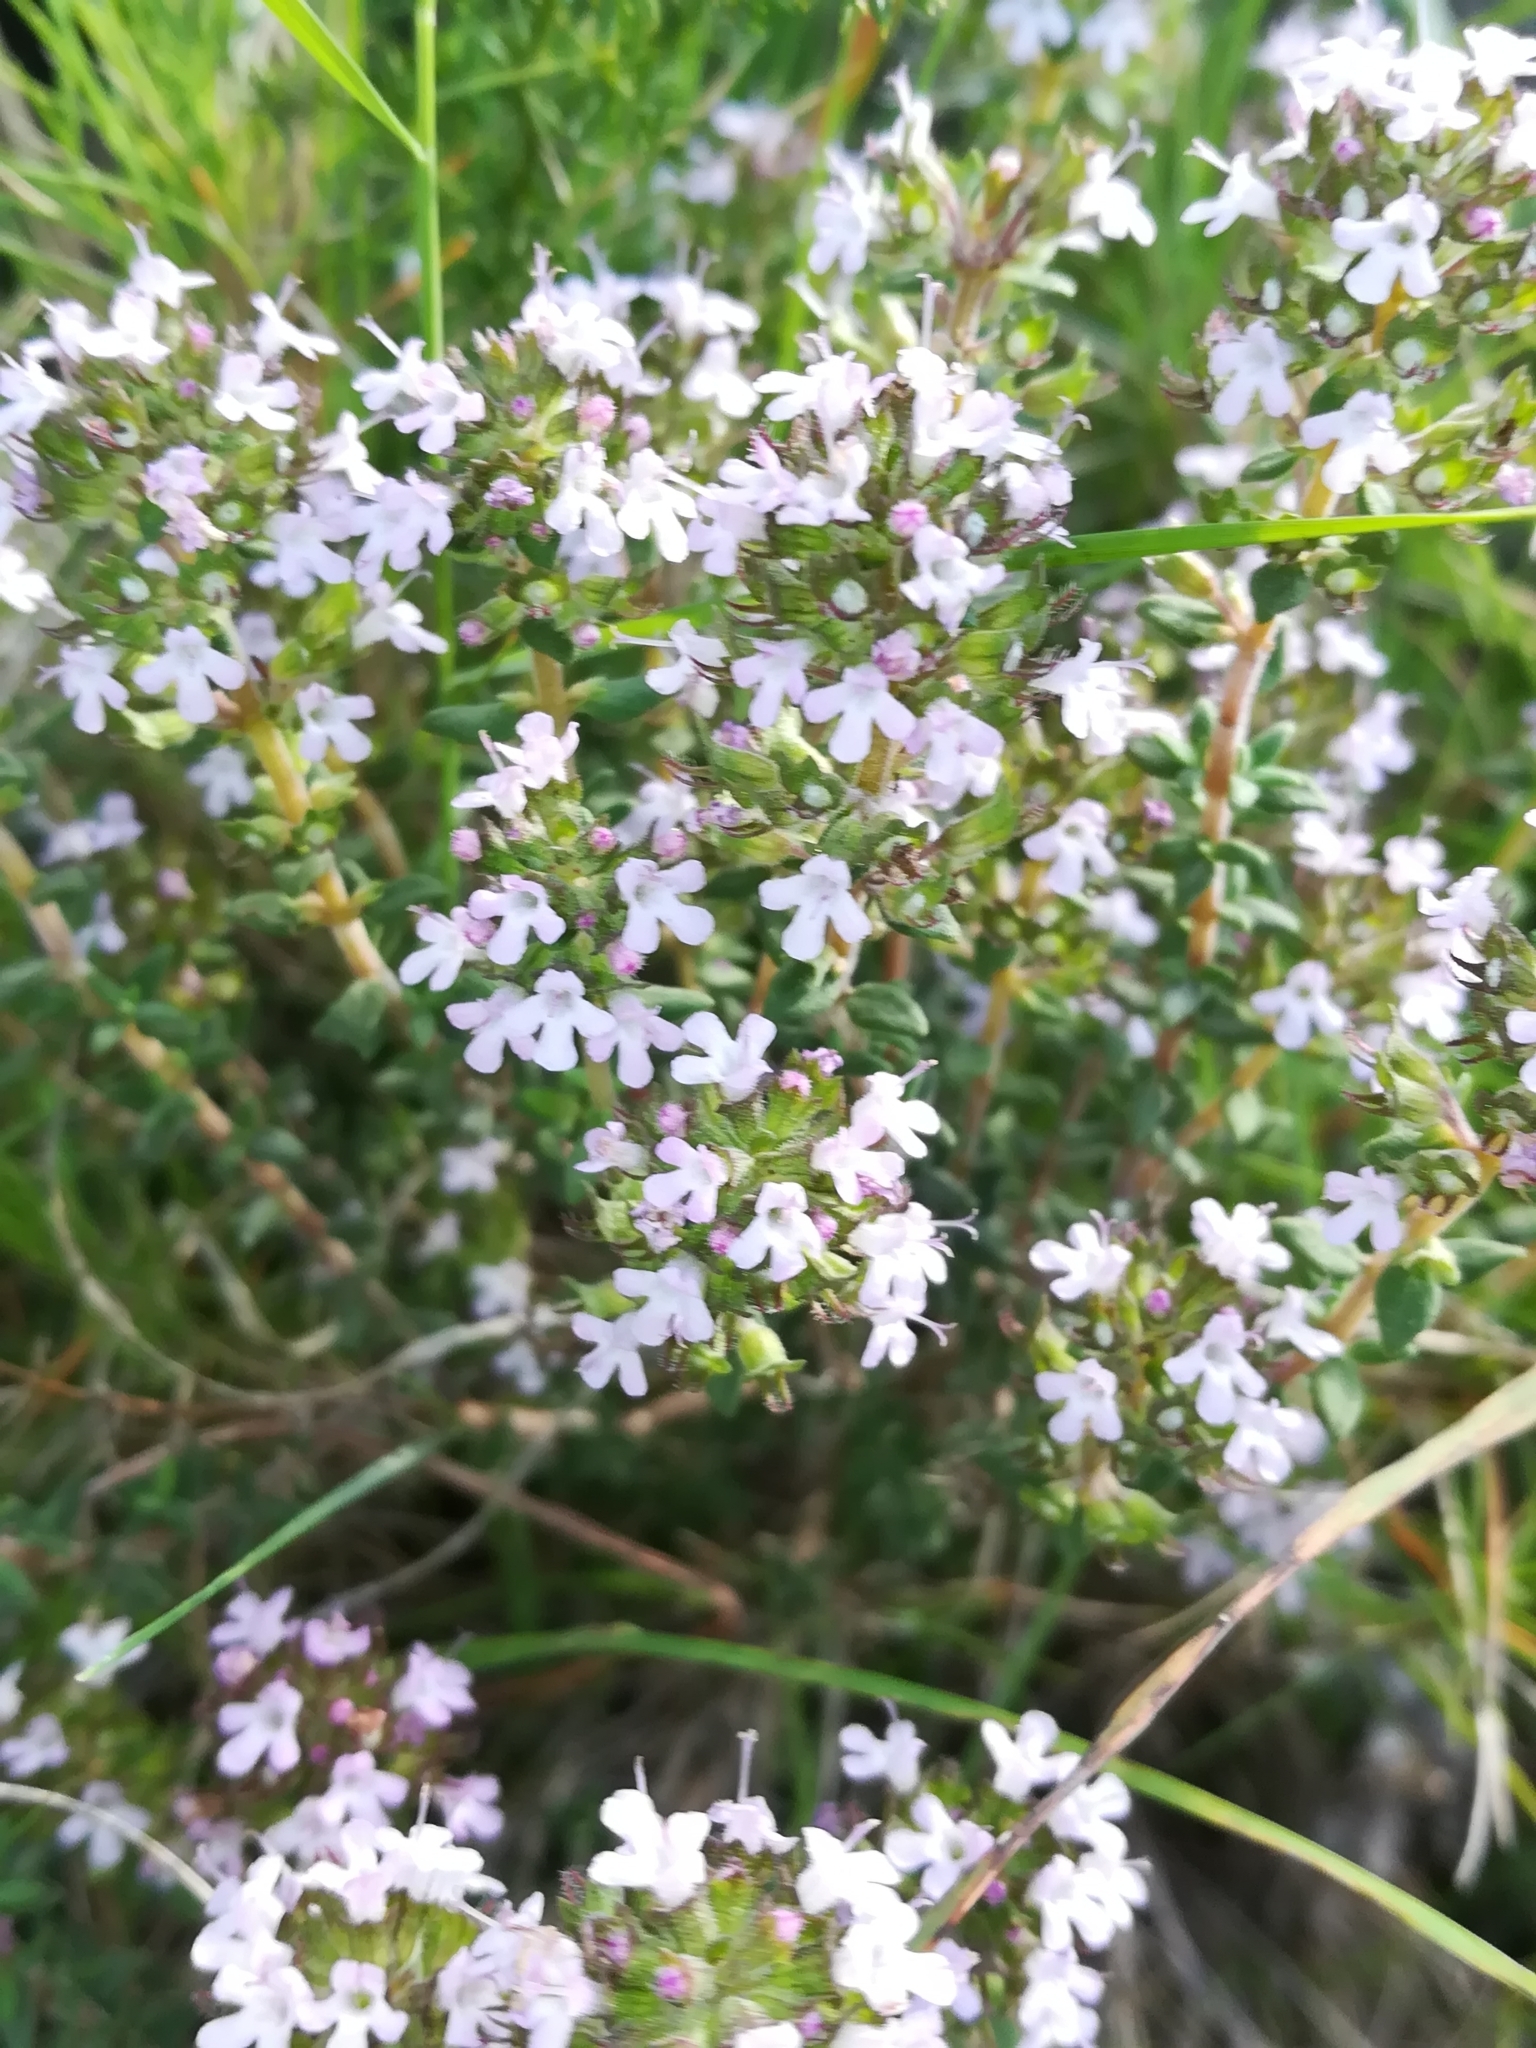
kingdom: Plantae
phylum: Tracheophyta
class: Magnoliopsida
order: Lamiales
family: Lamiaceae
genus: Thymus
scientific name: Thymus vulgaris
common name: Garden thyme
